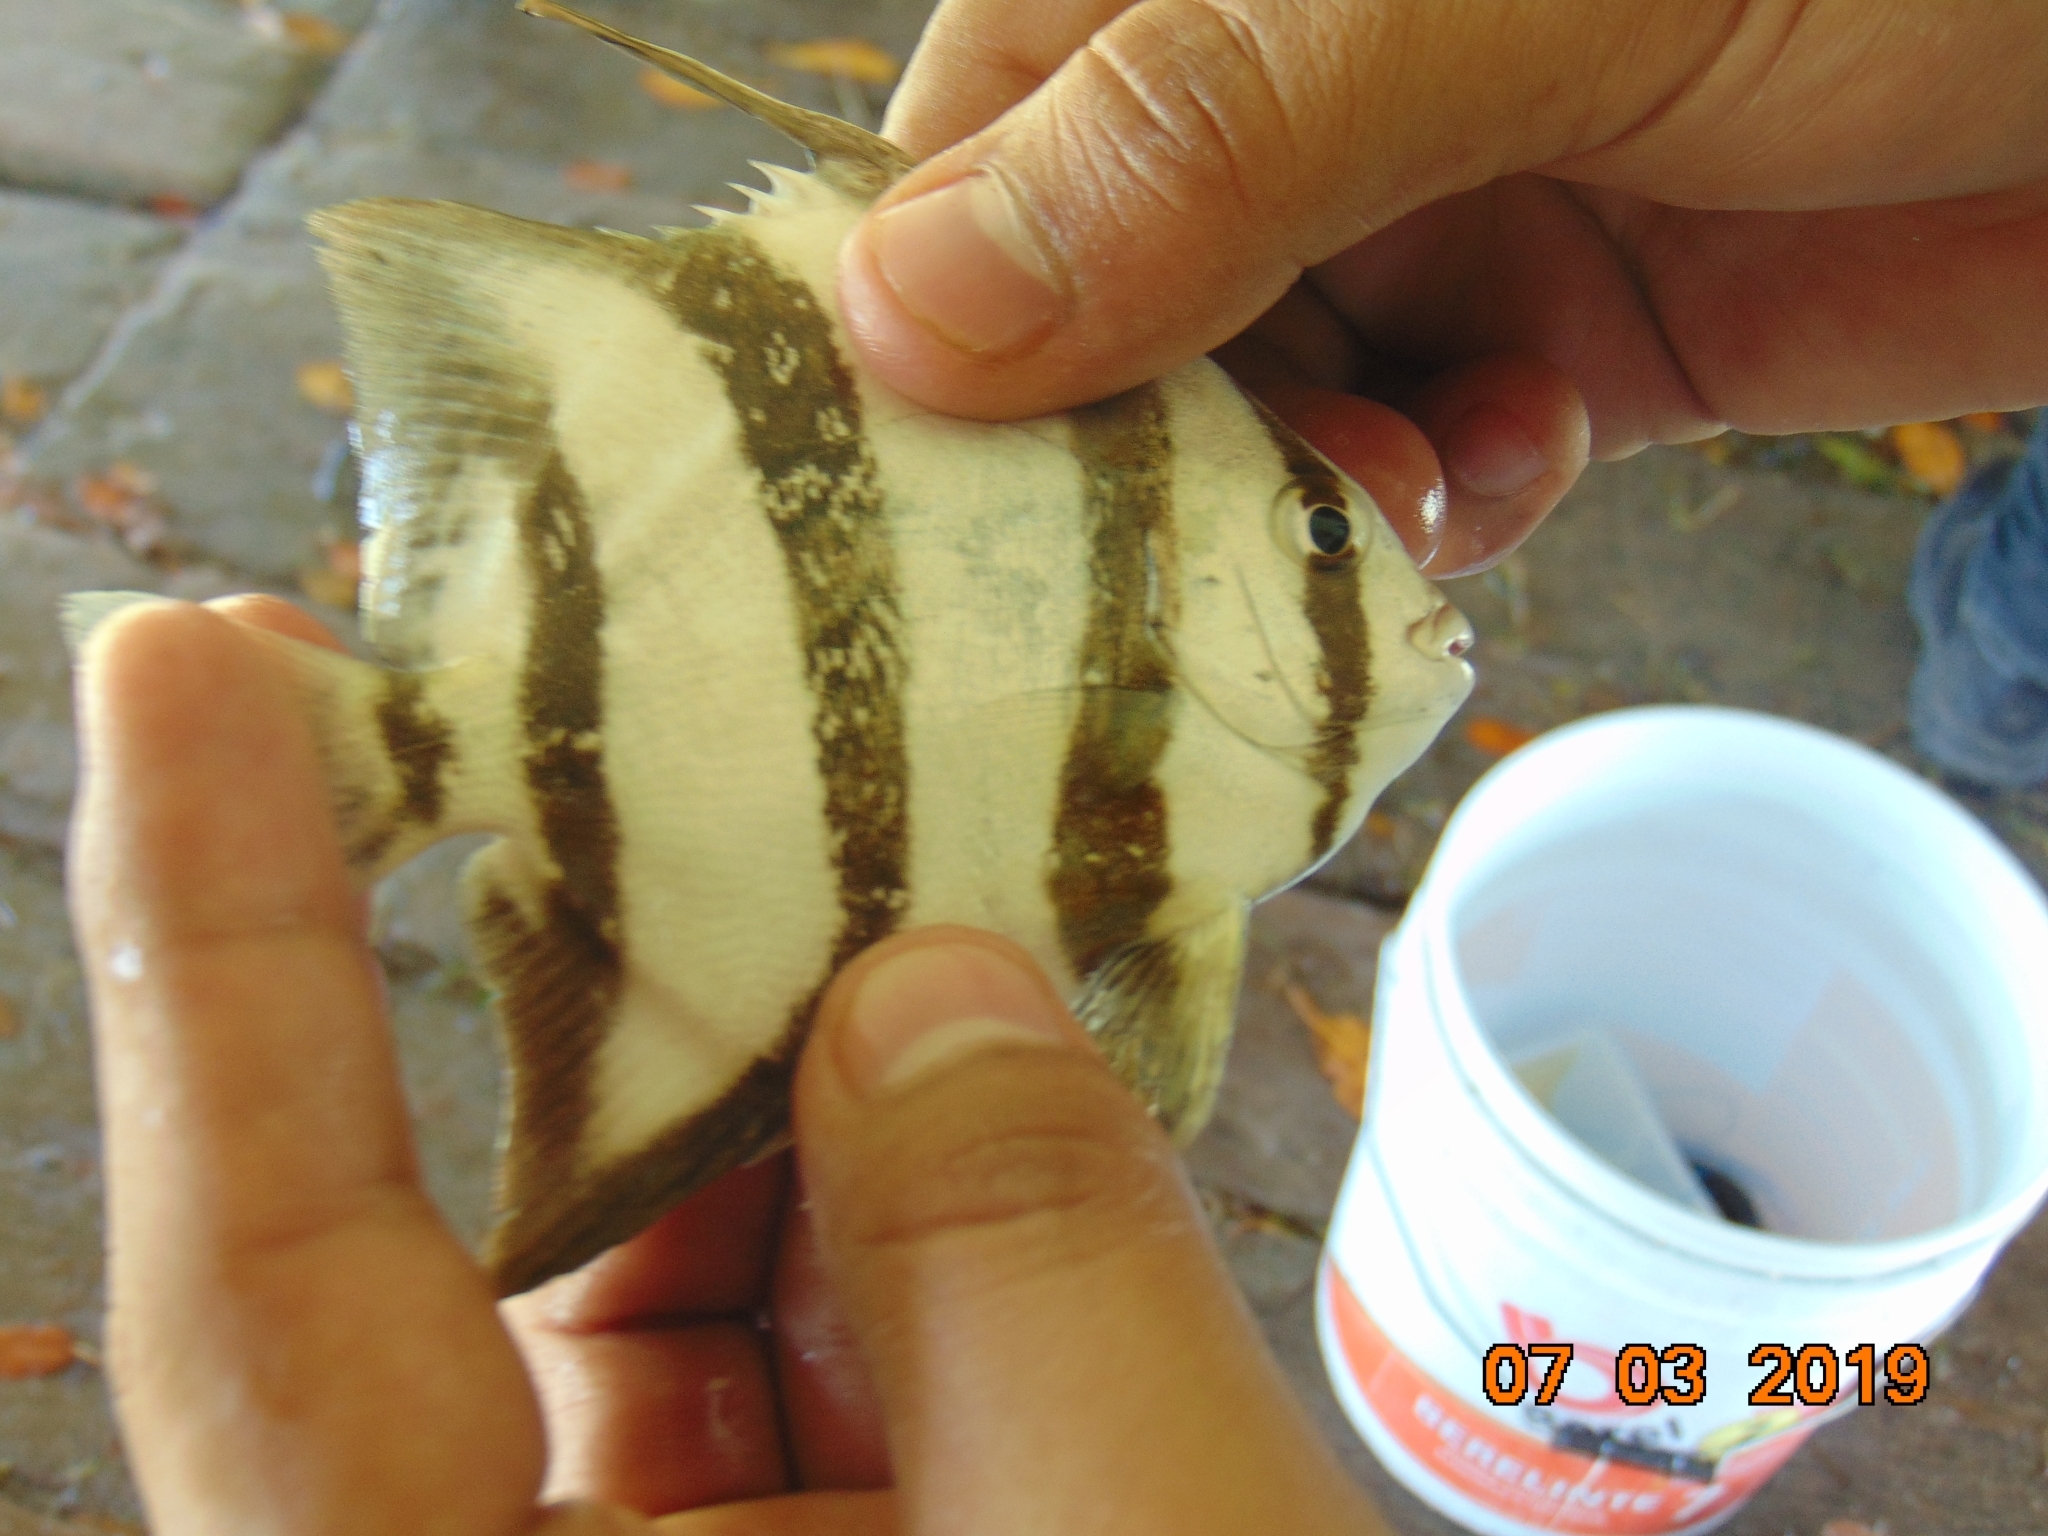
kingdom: Animalia
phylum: Chordata
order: Perciformes
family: Ephippidae
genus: Chaetodipterus
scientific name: Chaetodipterus faber
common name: Ocean cobbler
